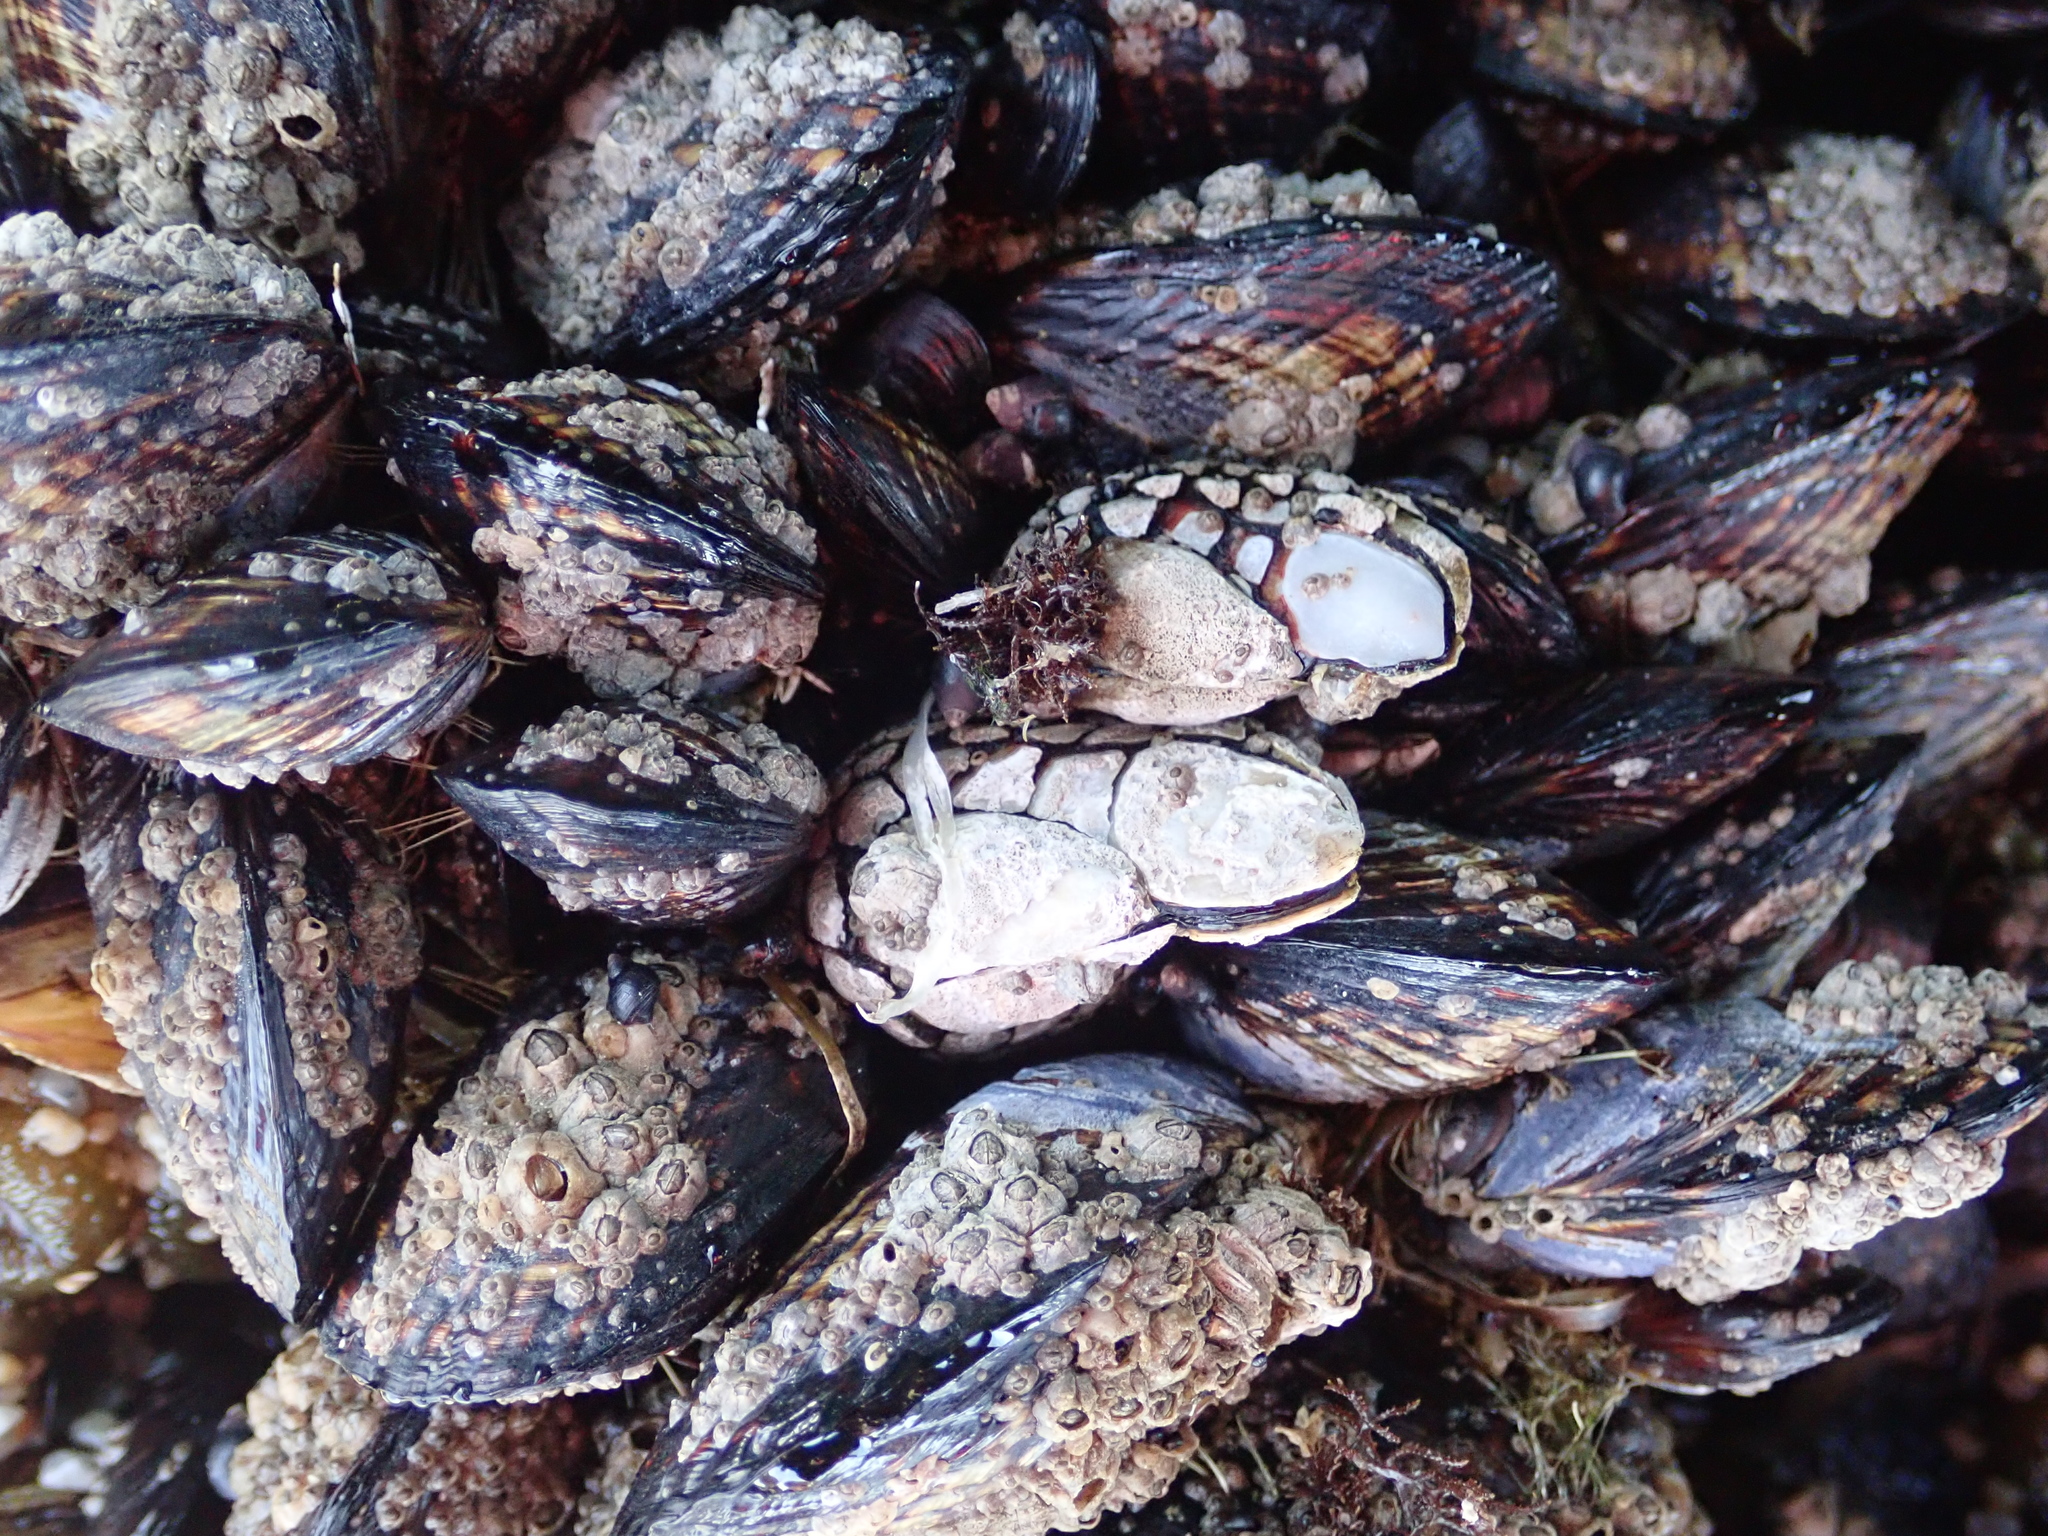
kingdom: Animalia
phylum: Arthropoda
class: Maxillopoda
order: Pedunculata
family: Pollicipedidae
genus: Pollicipes
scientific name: Pollicipes polymerus
